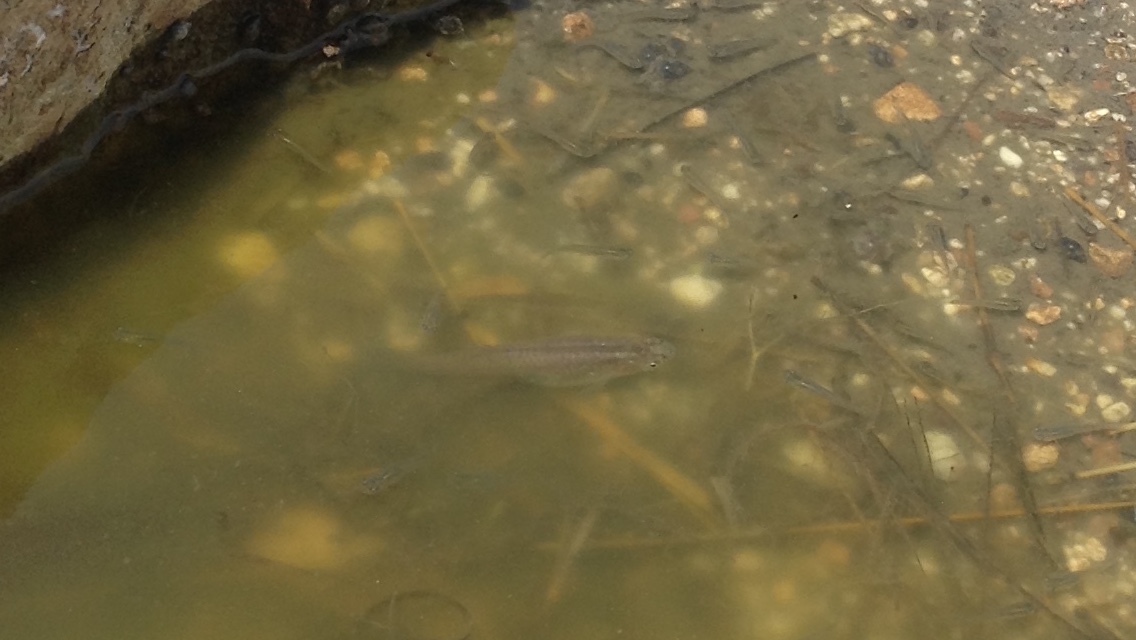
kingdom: Animalia
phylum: Chordata
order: Cyprinodontiformes
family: Poeciliidae
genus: Gambusia
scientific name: Gambusia affinis
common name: Mosquitofish
